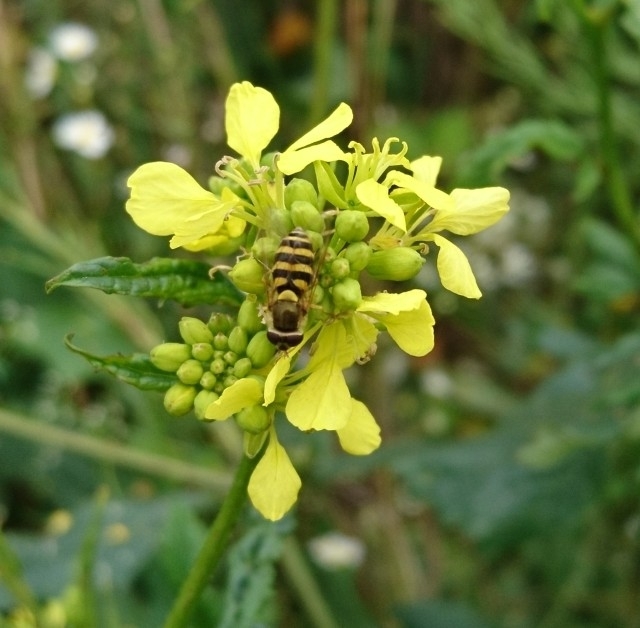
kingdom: Animalia
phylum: Arthropoda
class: Insecta
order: Diptera
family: Syrphidae
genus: Syrphus
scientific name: Syrphus
